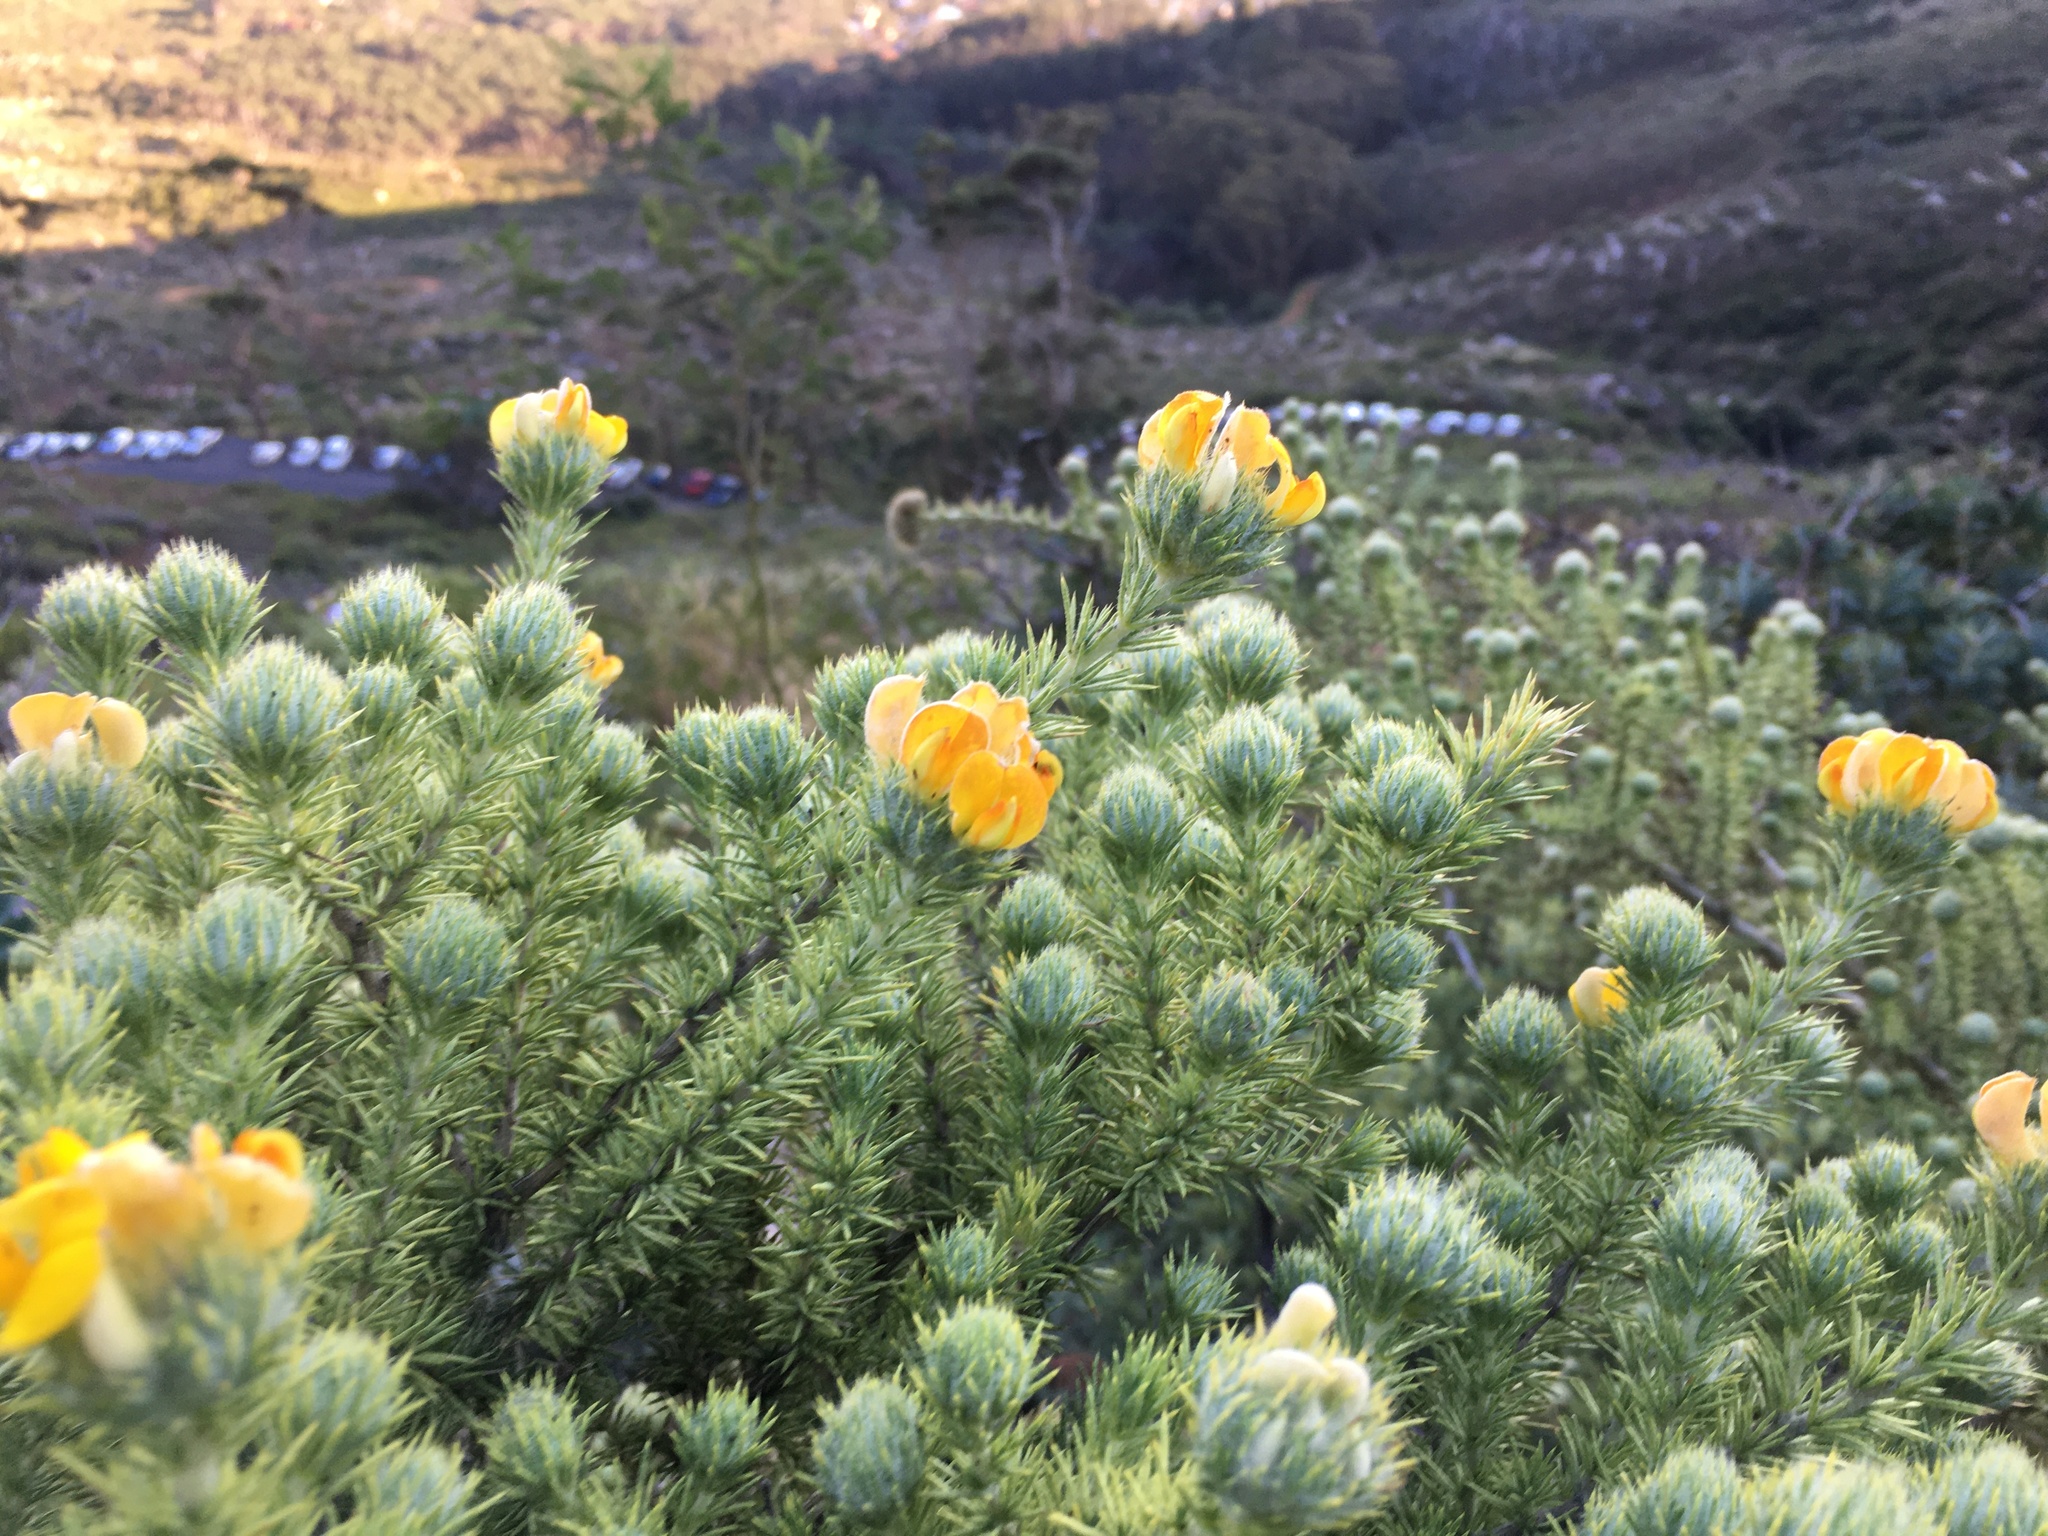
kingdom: Plantae
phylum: Tracheophyta
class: Magnoliopsida
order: Fabales
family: Fabaceae
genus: Aspalathus
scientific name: Aspalathus chenopoda
